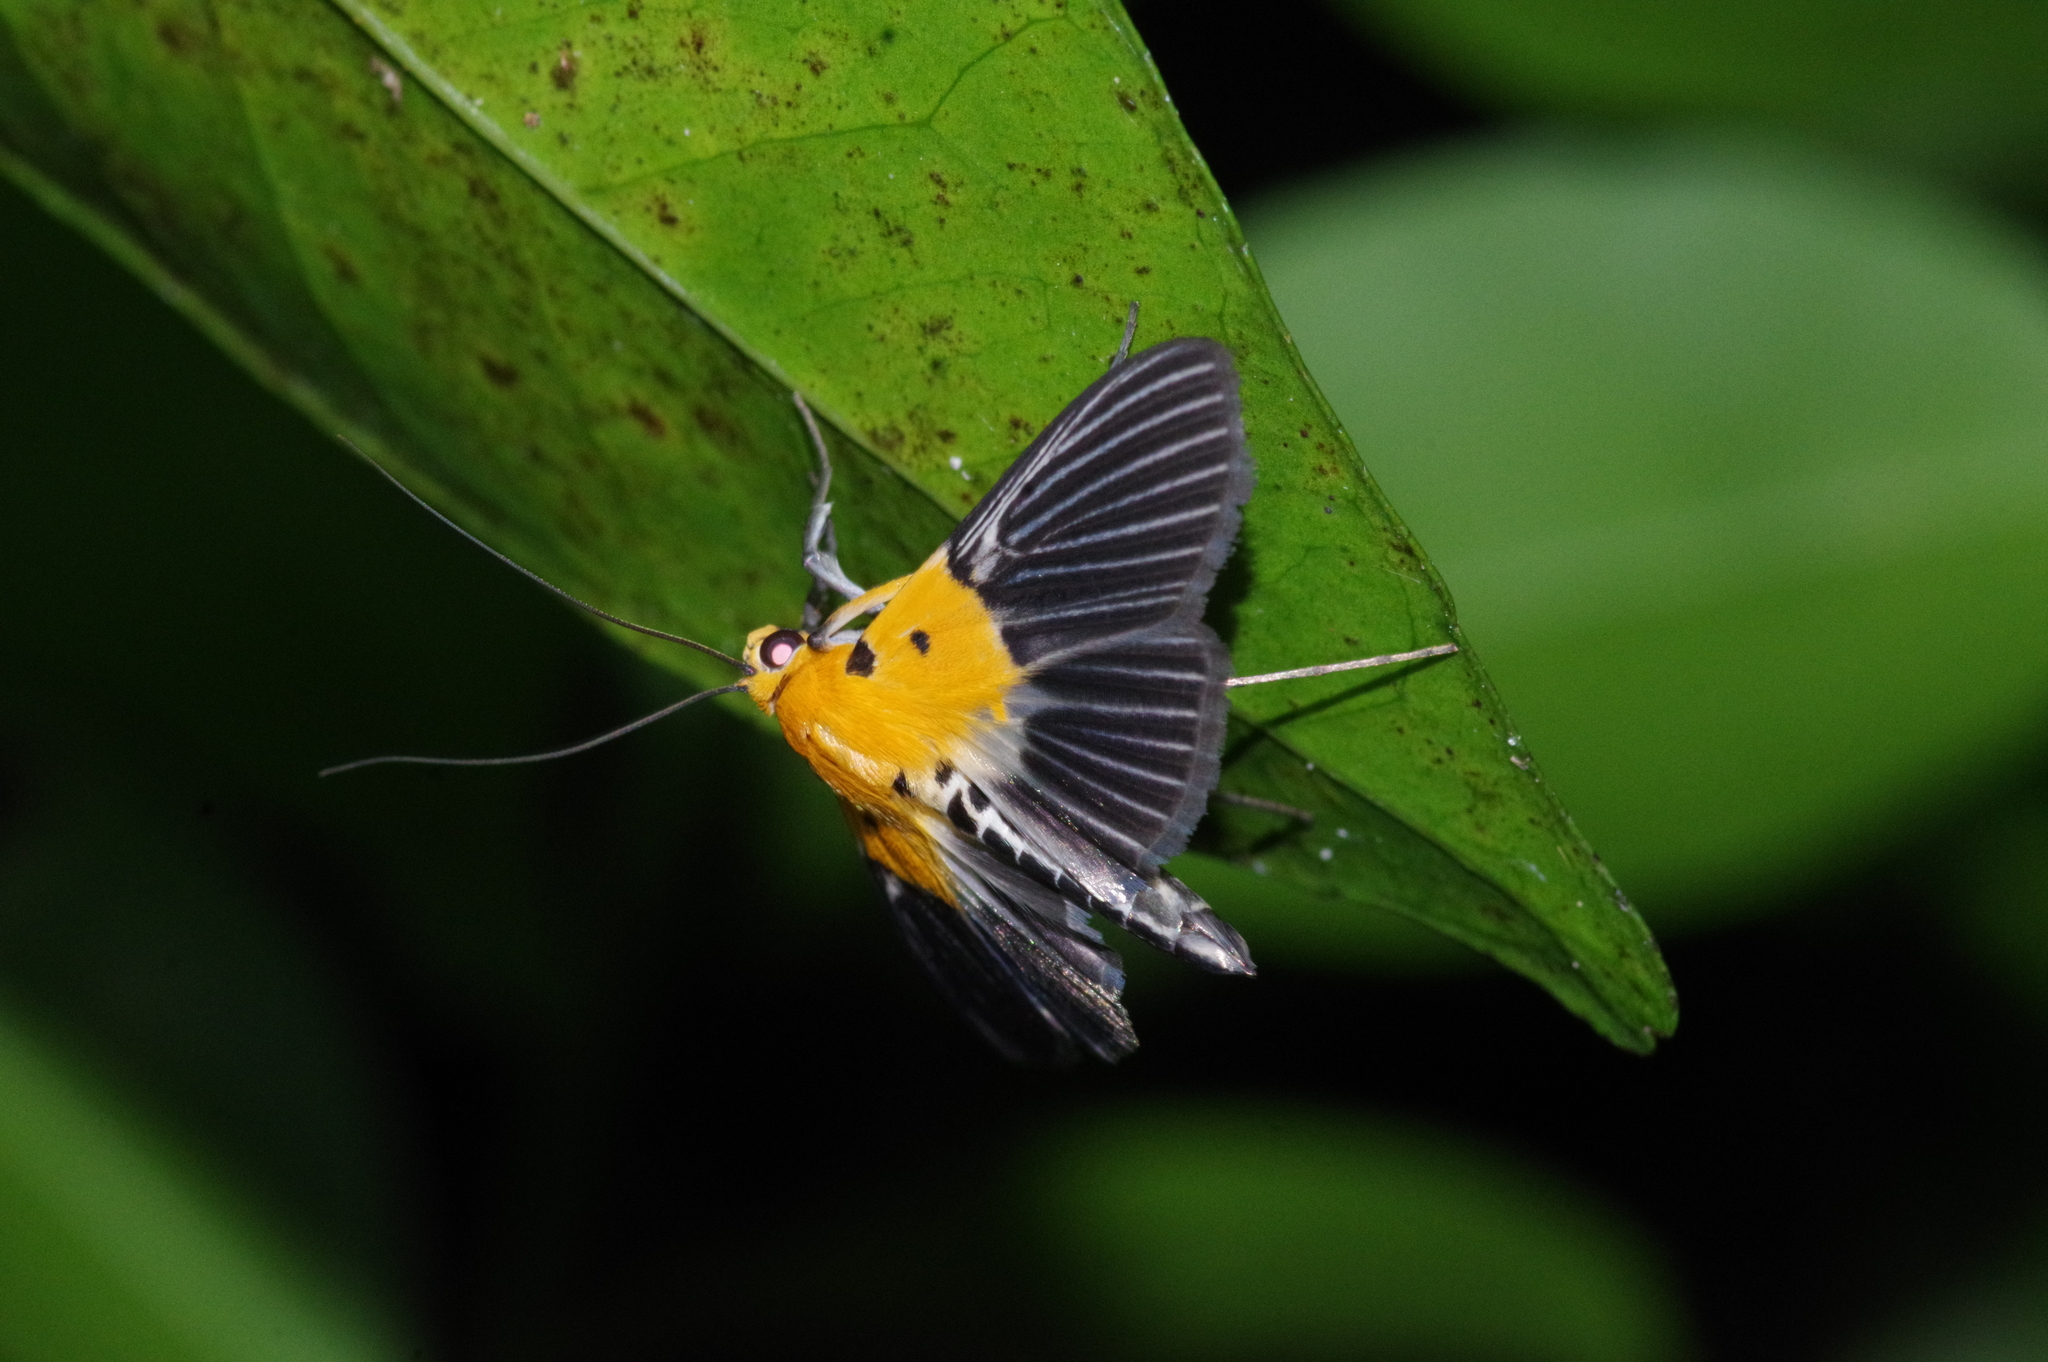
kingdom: Animalia
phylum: Arthropoda
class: Insecta
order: Lepidoptera
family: Crambidae
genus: Nevrina
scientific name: Nevrina procopia
